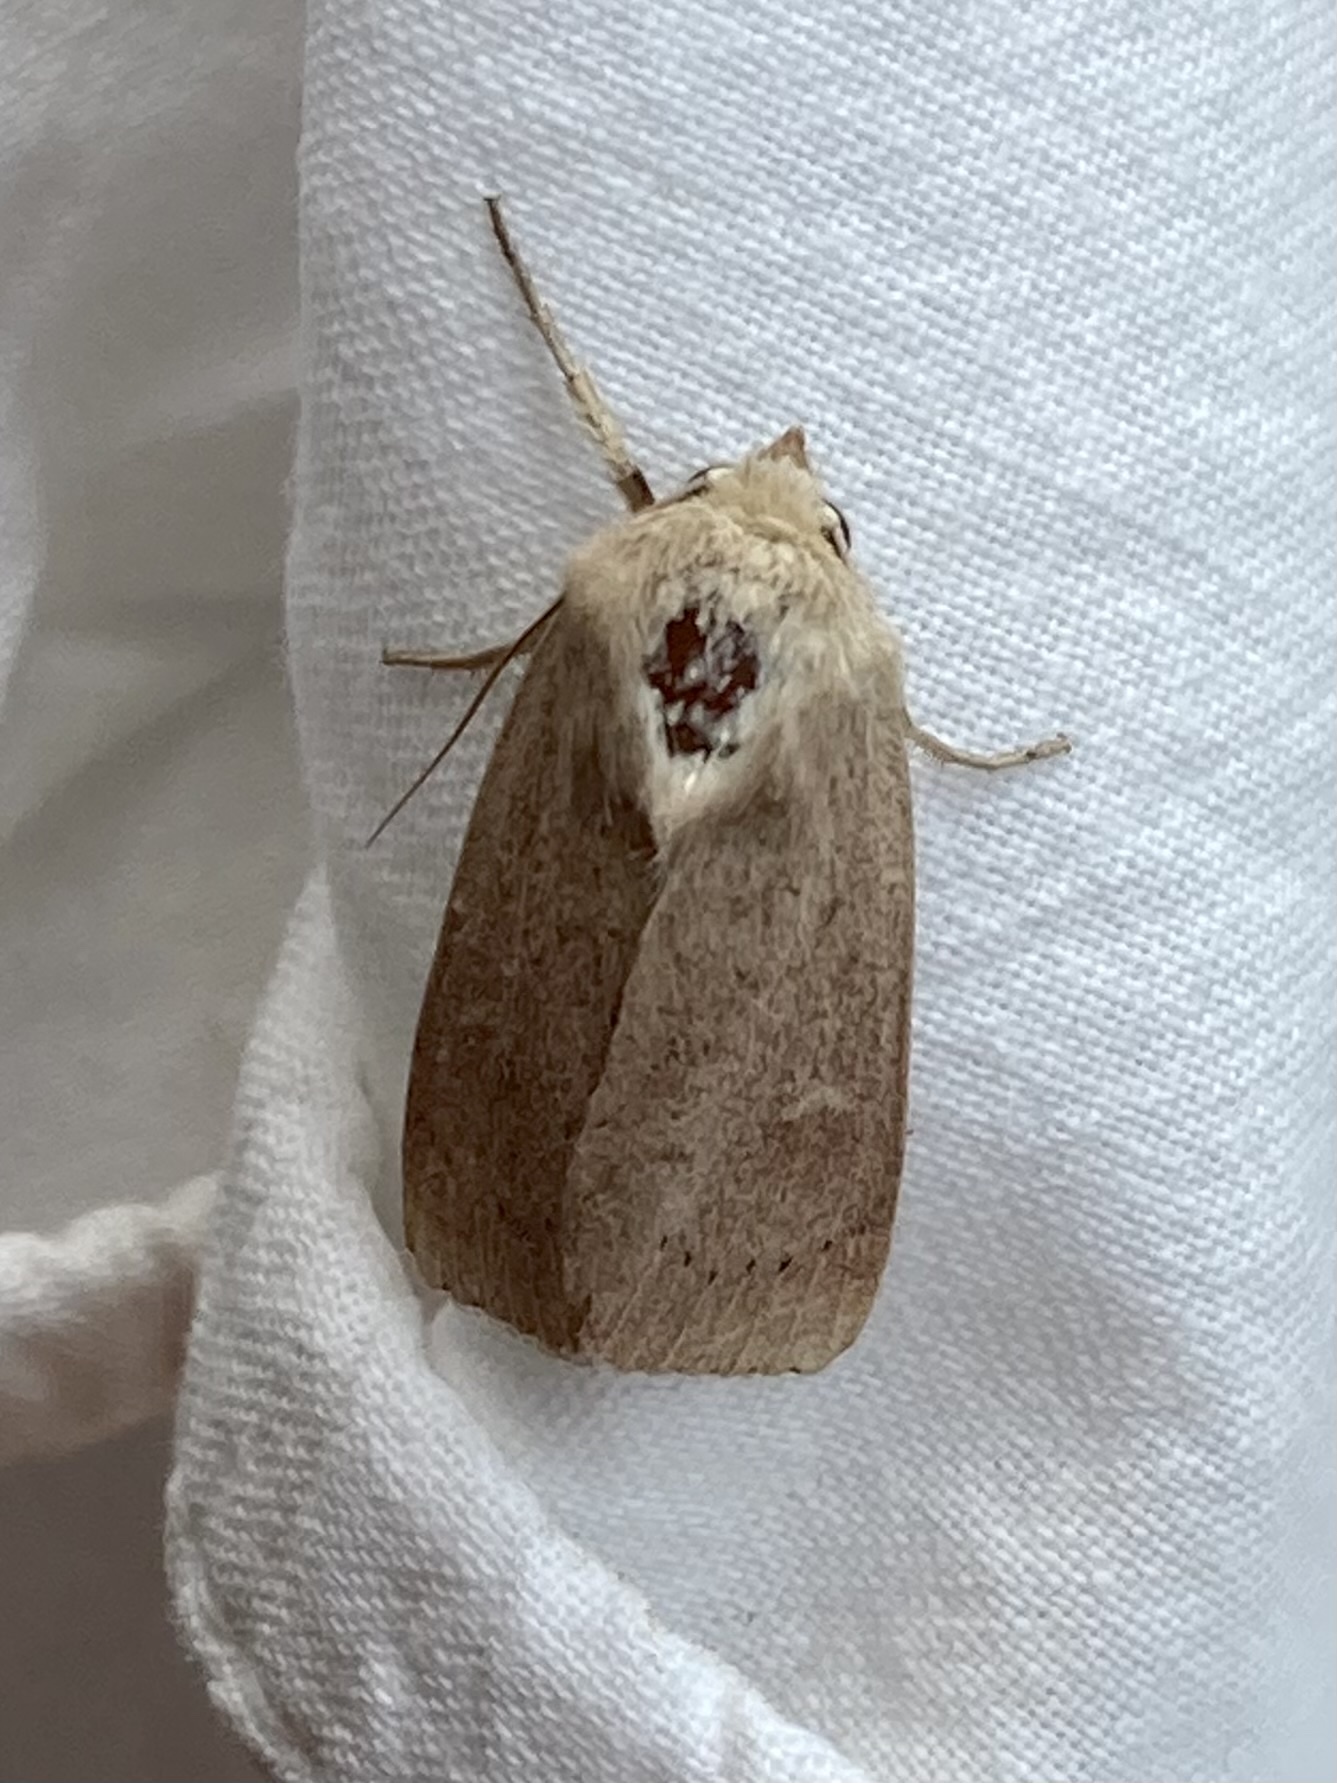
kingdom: Animalia
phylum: Arthropoda
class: Insecta
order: Lepidoptera
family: Noctuidae
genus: Mythimna
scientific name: Mythimna ferrago
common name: Clay
